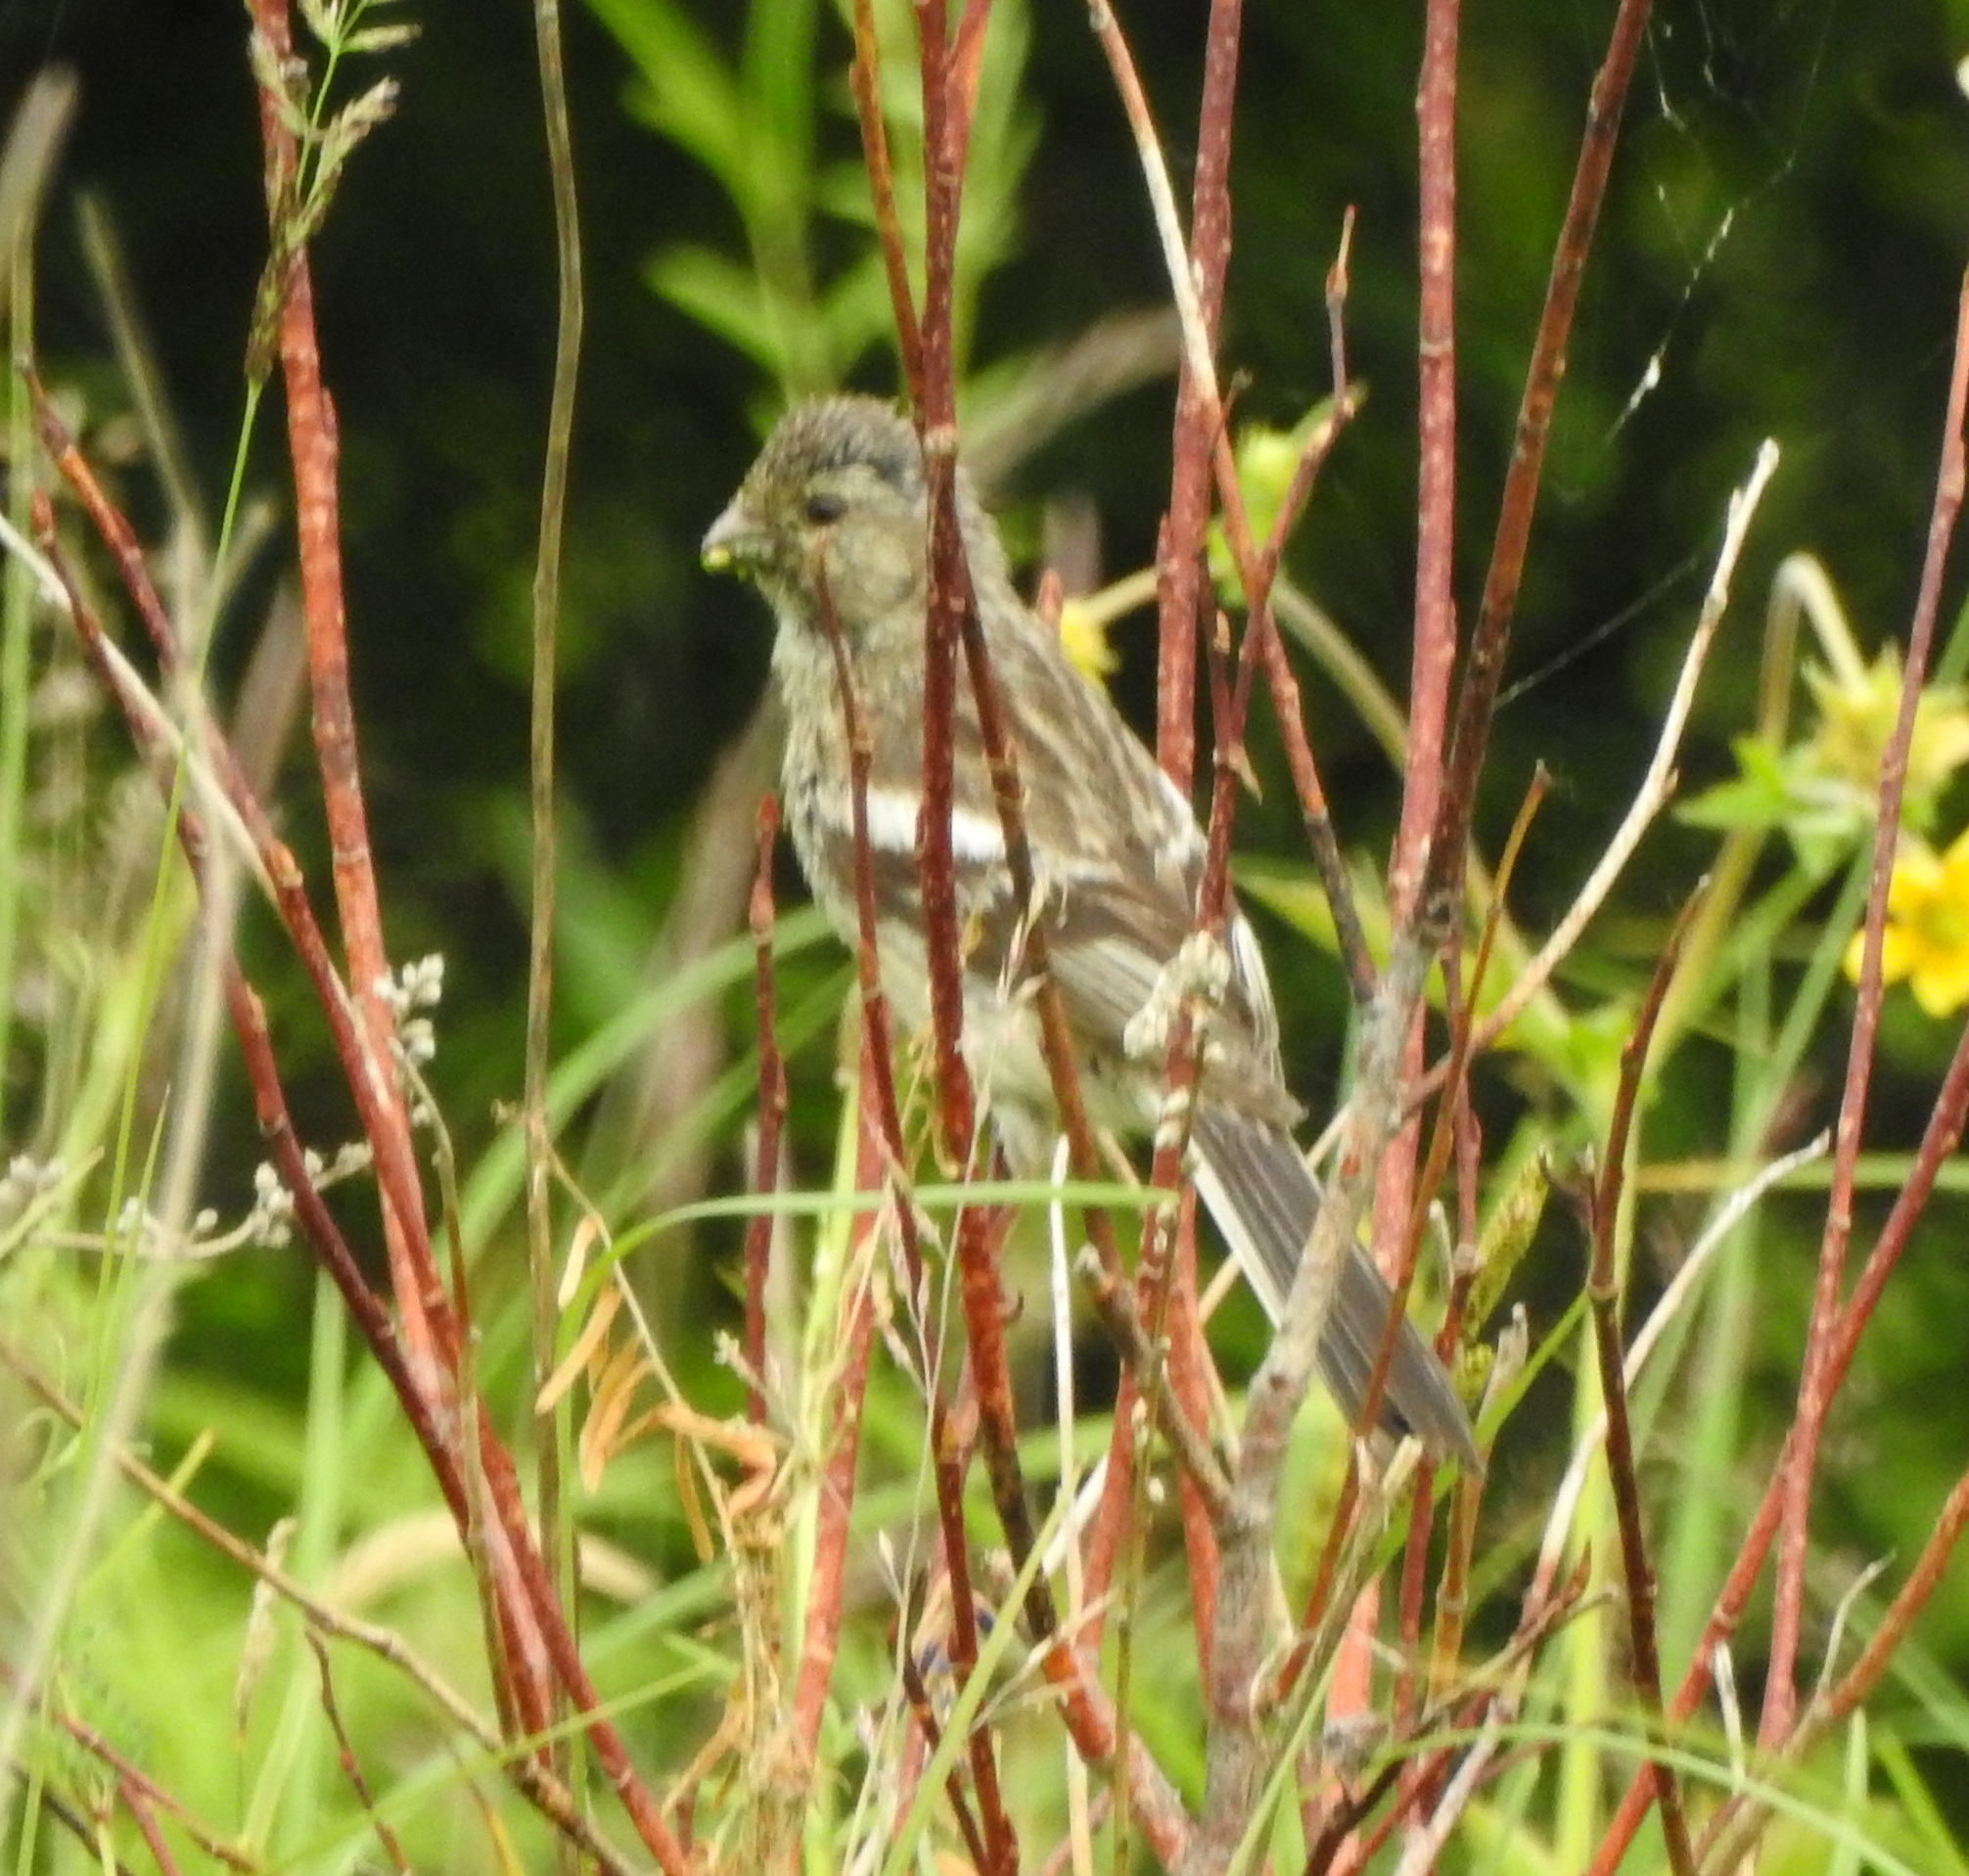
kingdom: Animalia
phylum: Chordata
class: Aves
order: Passeriformes
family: Fringillidae
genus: Carpodacus
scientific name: Carpodacus sibiricus
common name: Long-tailed rosefinch
